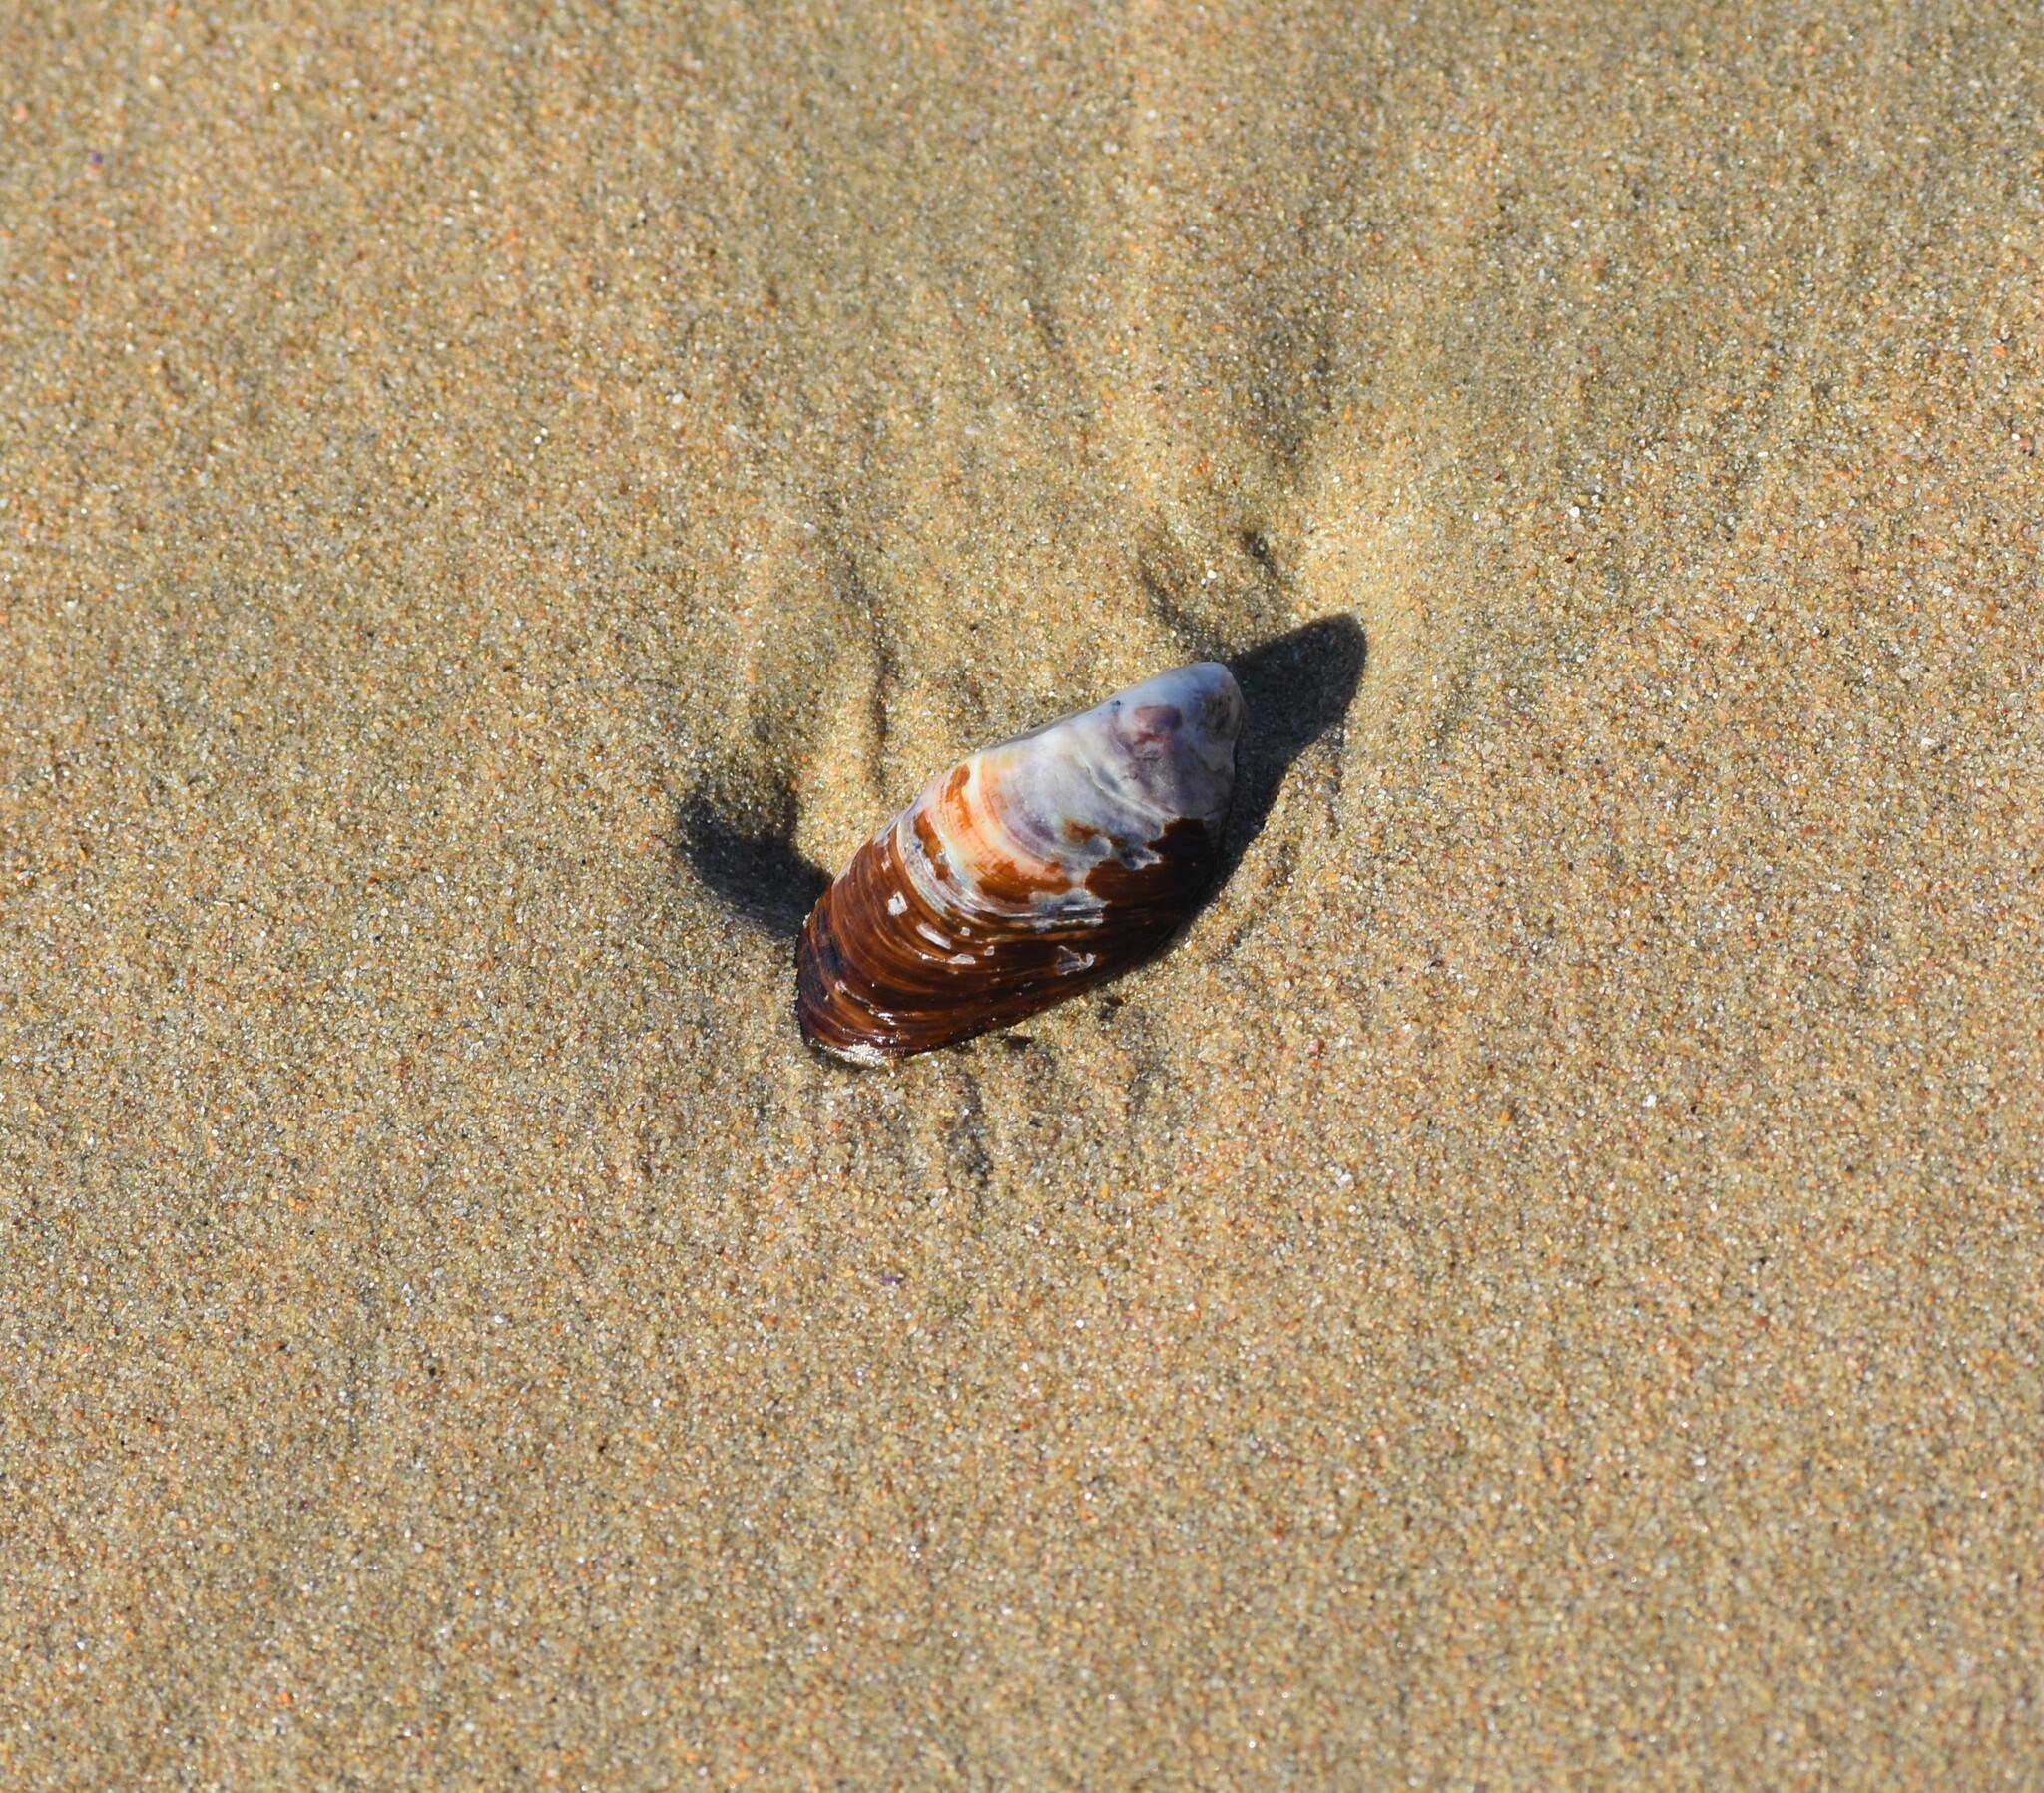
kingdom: Animalia
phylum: Mollusca
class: Bivalvia
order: Mytilida
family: Mytilidae
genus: Perna
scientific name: Perna perna
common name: Mexilhao mussel
